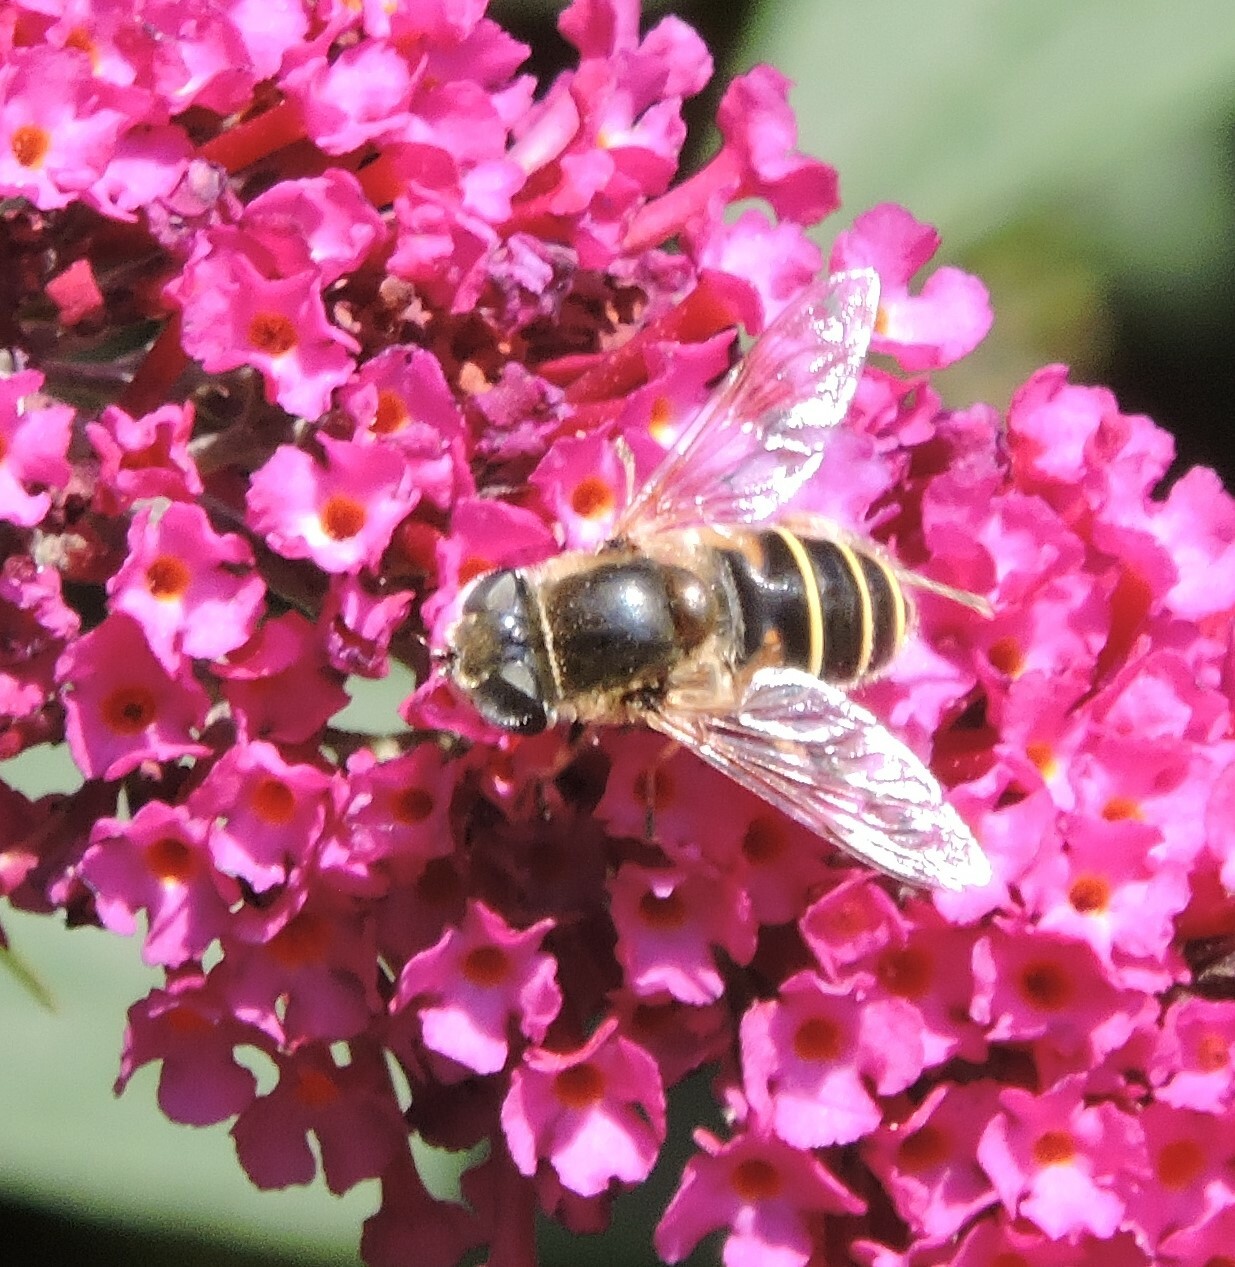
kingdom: Animalia
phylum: Arthropoda
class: Insecta
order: Diptera
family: Syrphidae
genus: Eristalis
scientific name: Eristalis hirta
